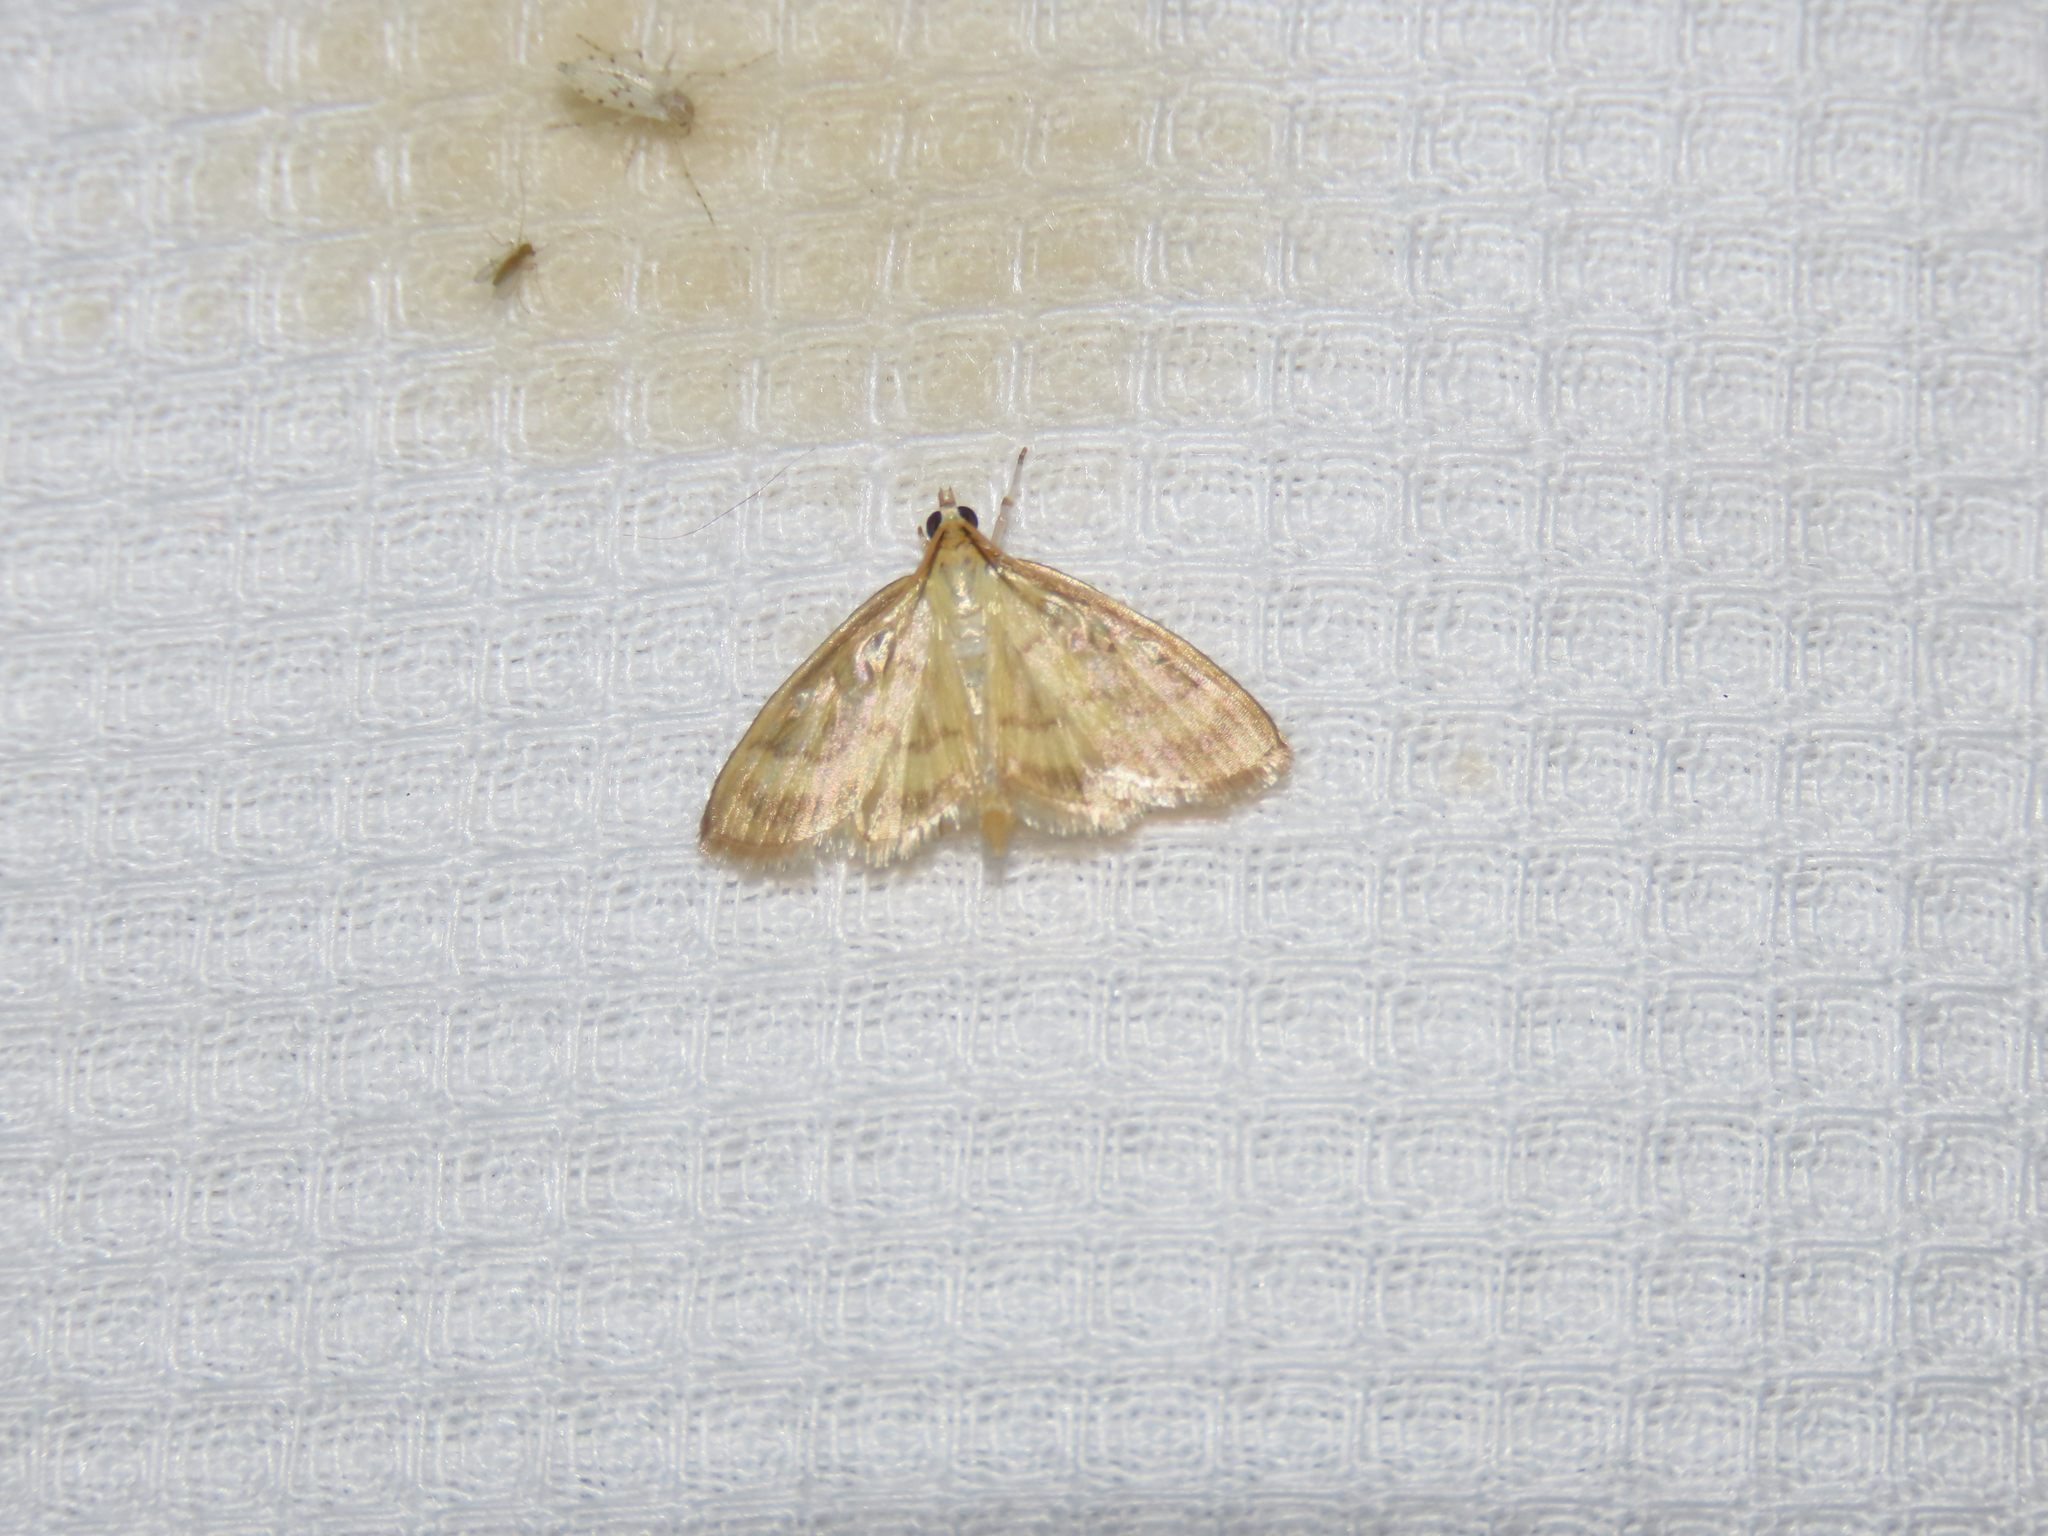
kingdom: Animalia
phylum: Arthropoda
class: Insecta
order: Lepidoptera
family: Crambidae
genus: Crocidophora
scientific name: Crocidophora tuberculalis
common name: Pale-winged crocidiphora moth
